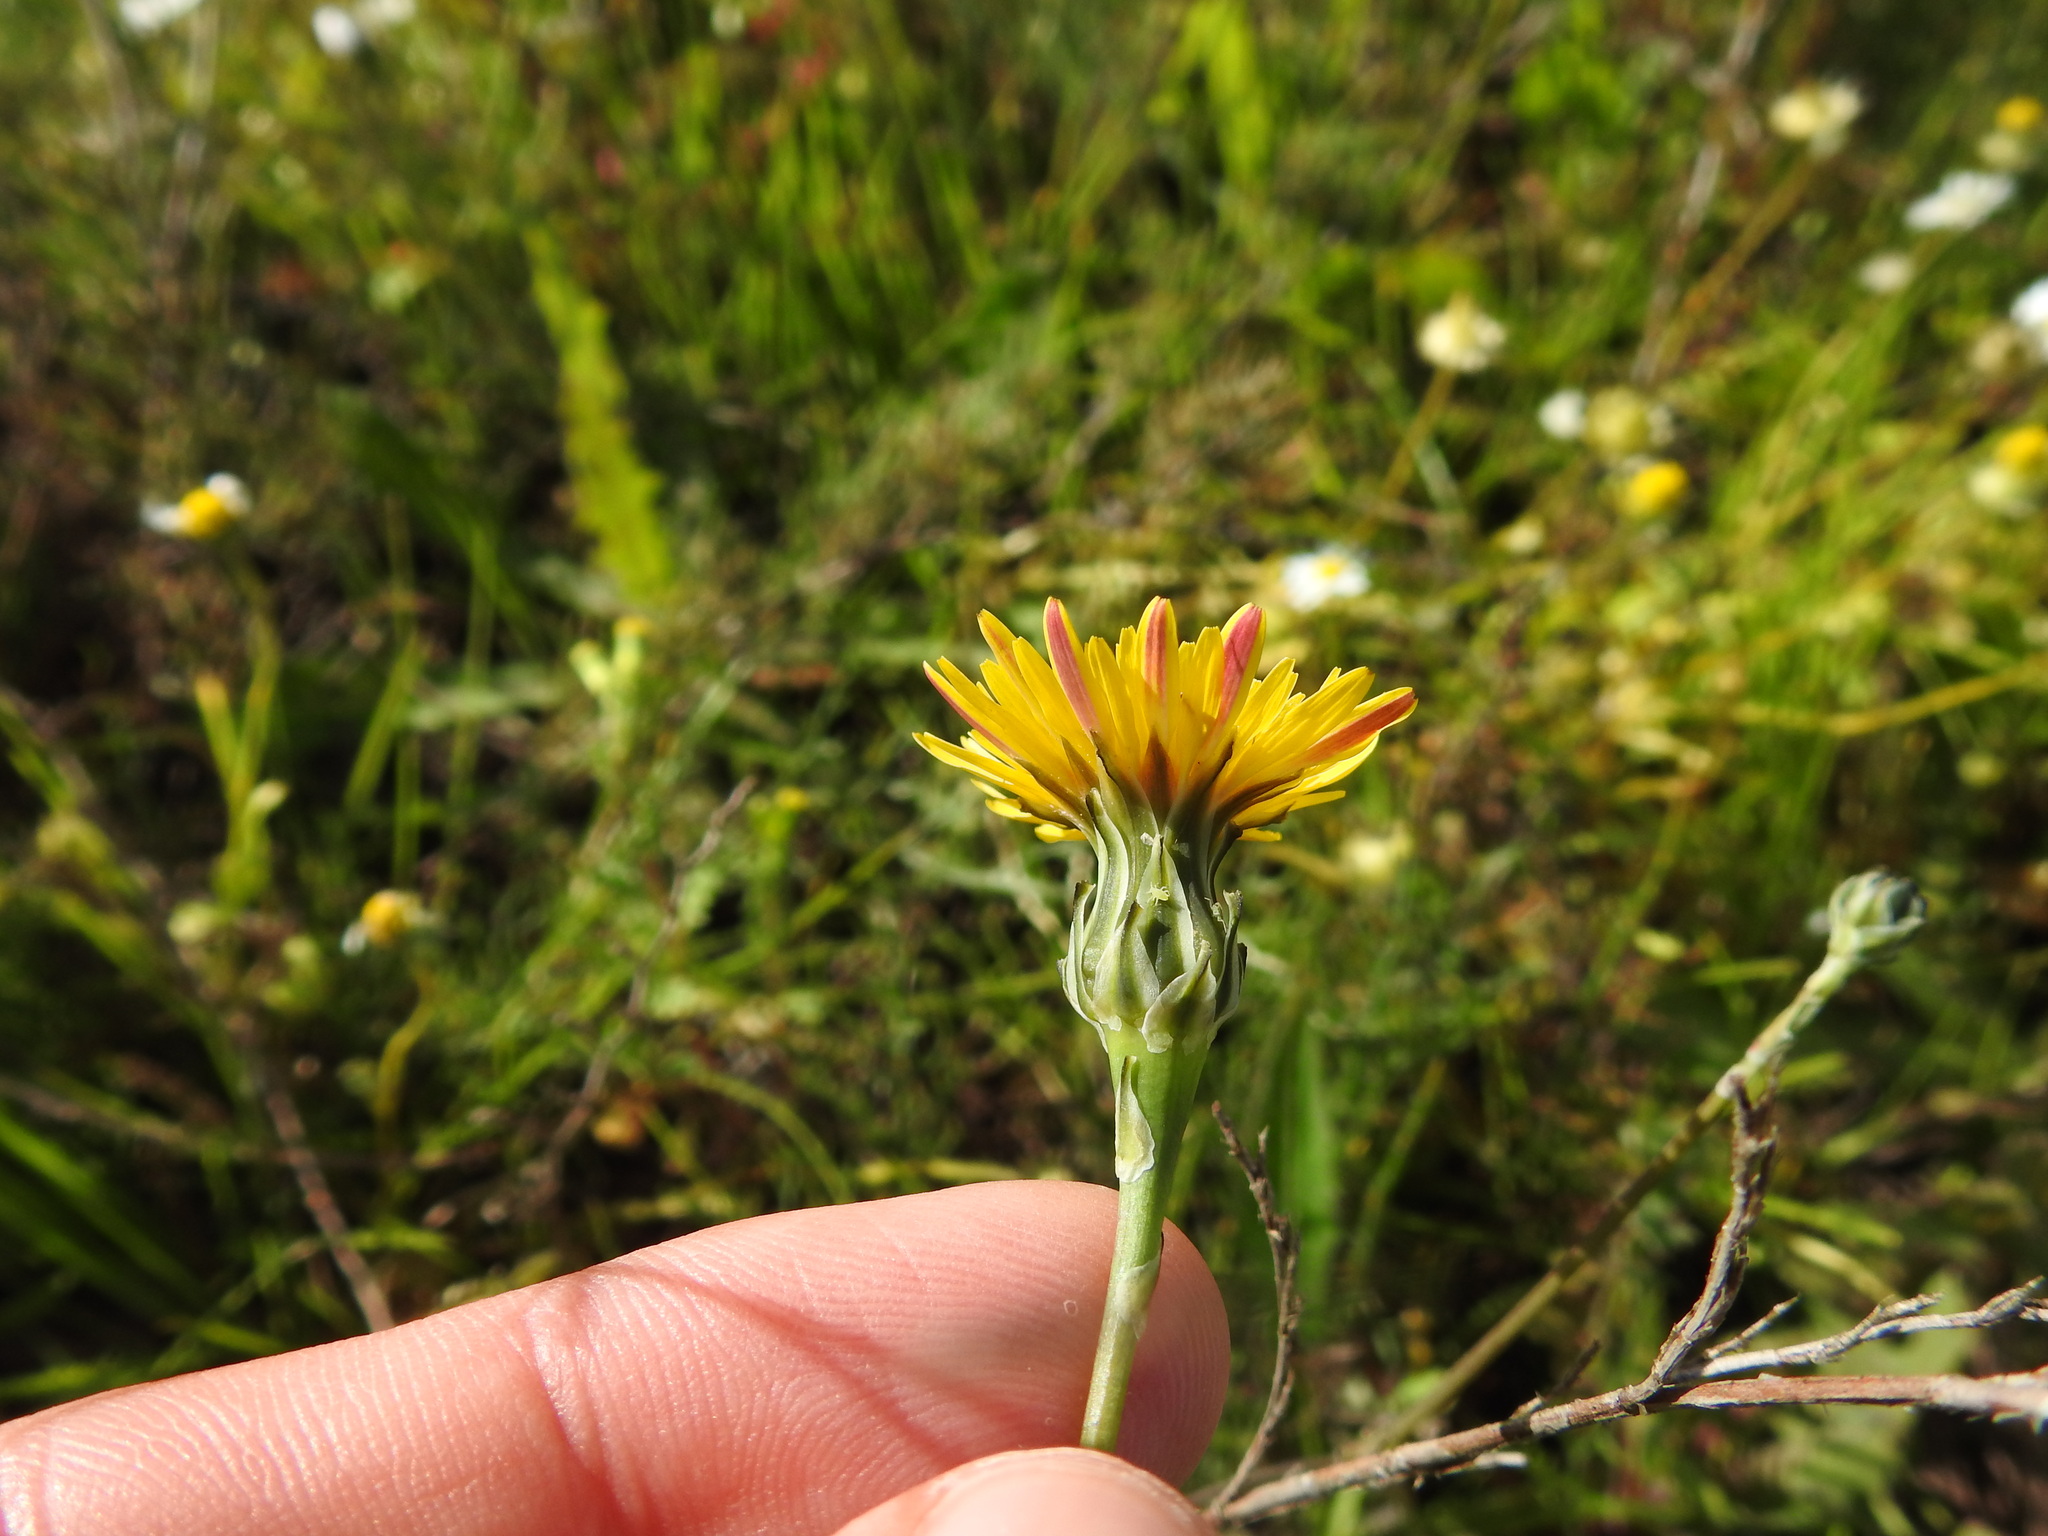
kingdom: Plantae
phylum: Tracheophyta
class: Magnoliopsida
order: Asterales
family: Asteraceae
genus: Reichardia
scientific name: Reichardia intermedia
